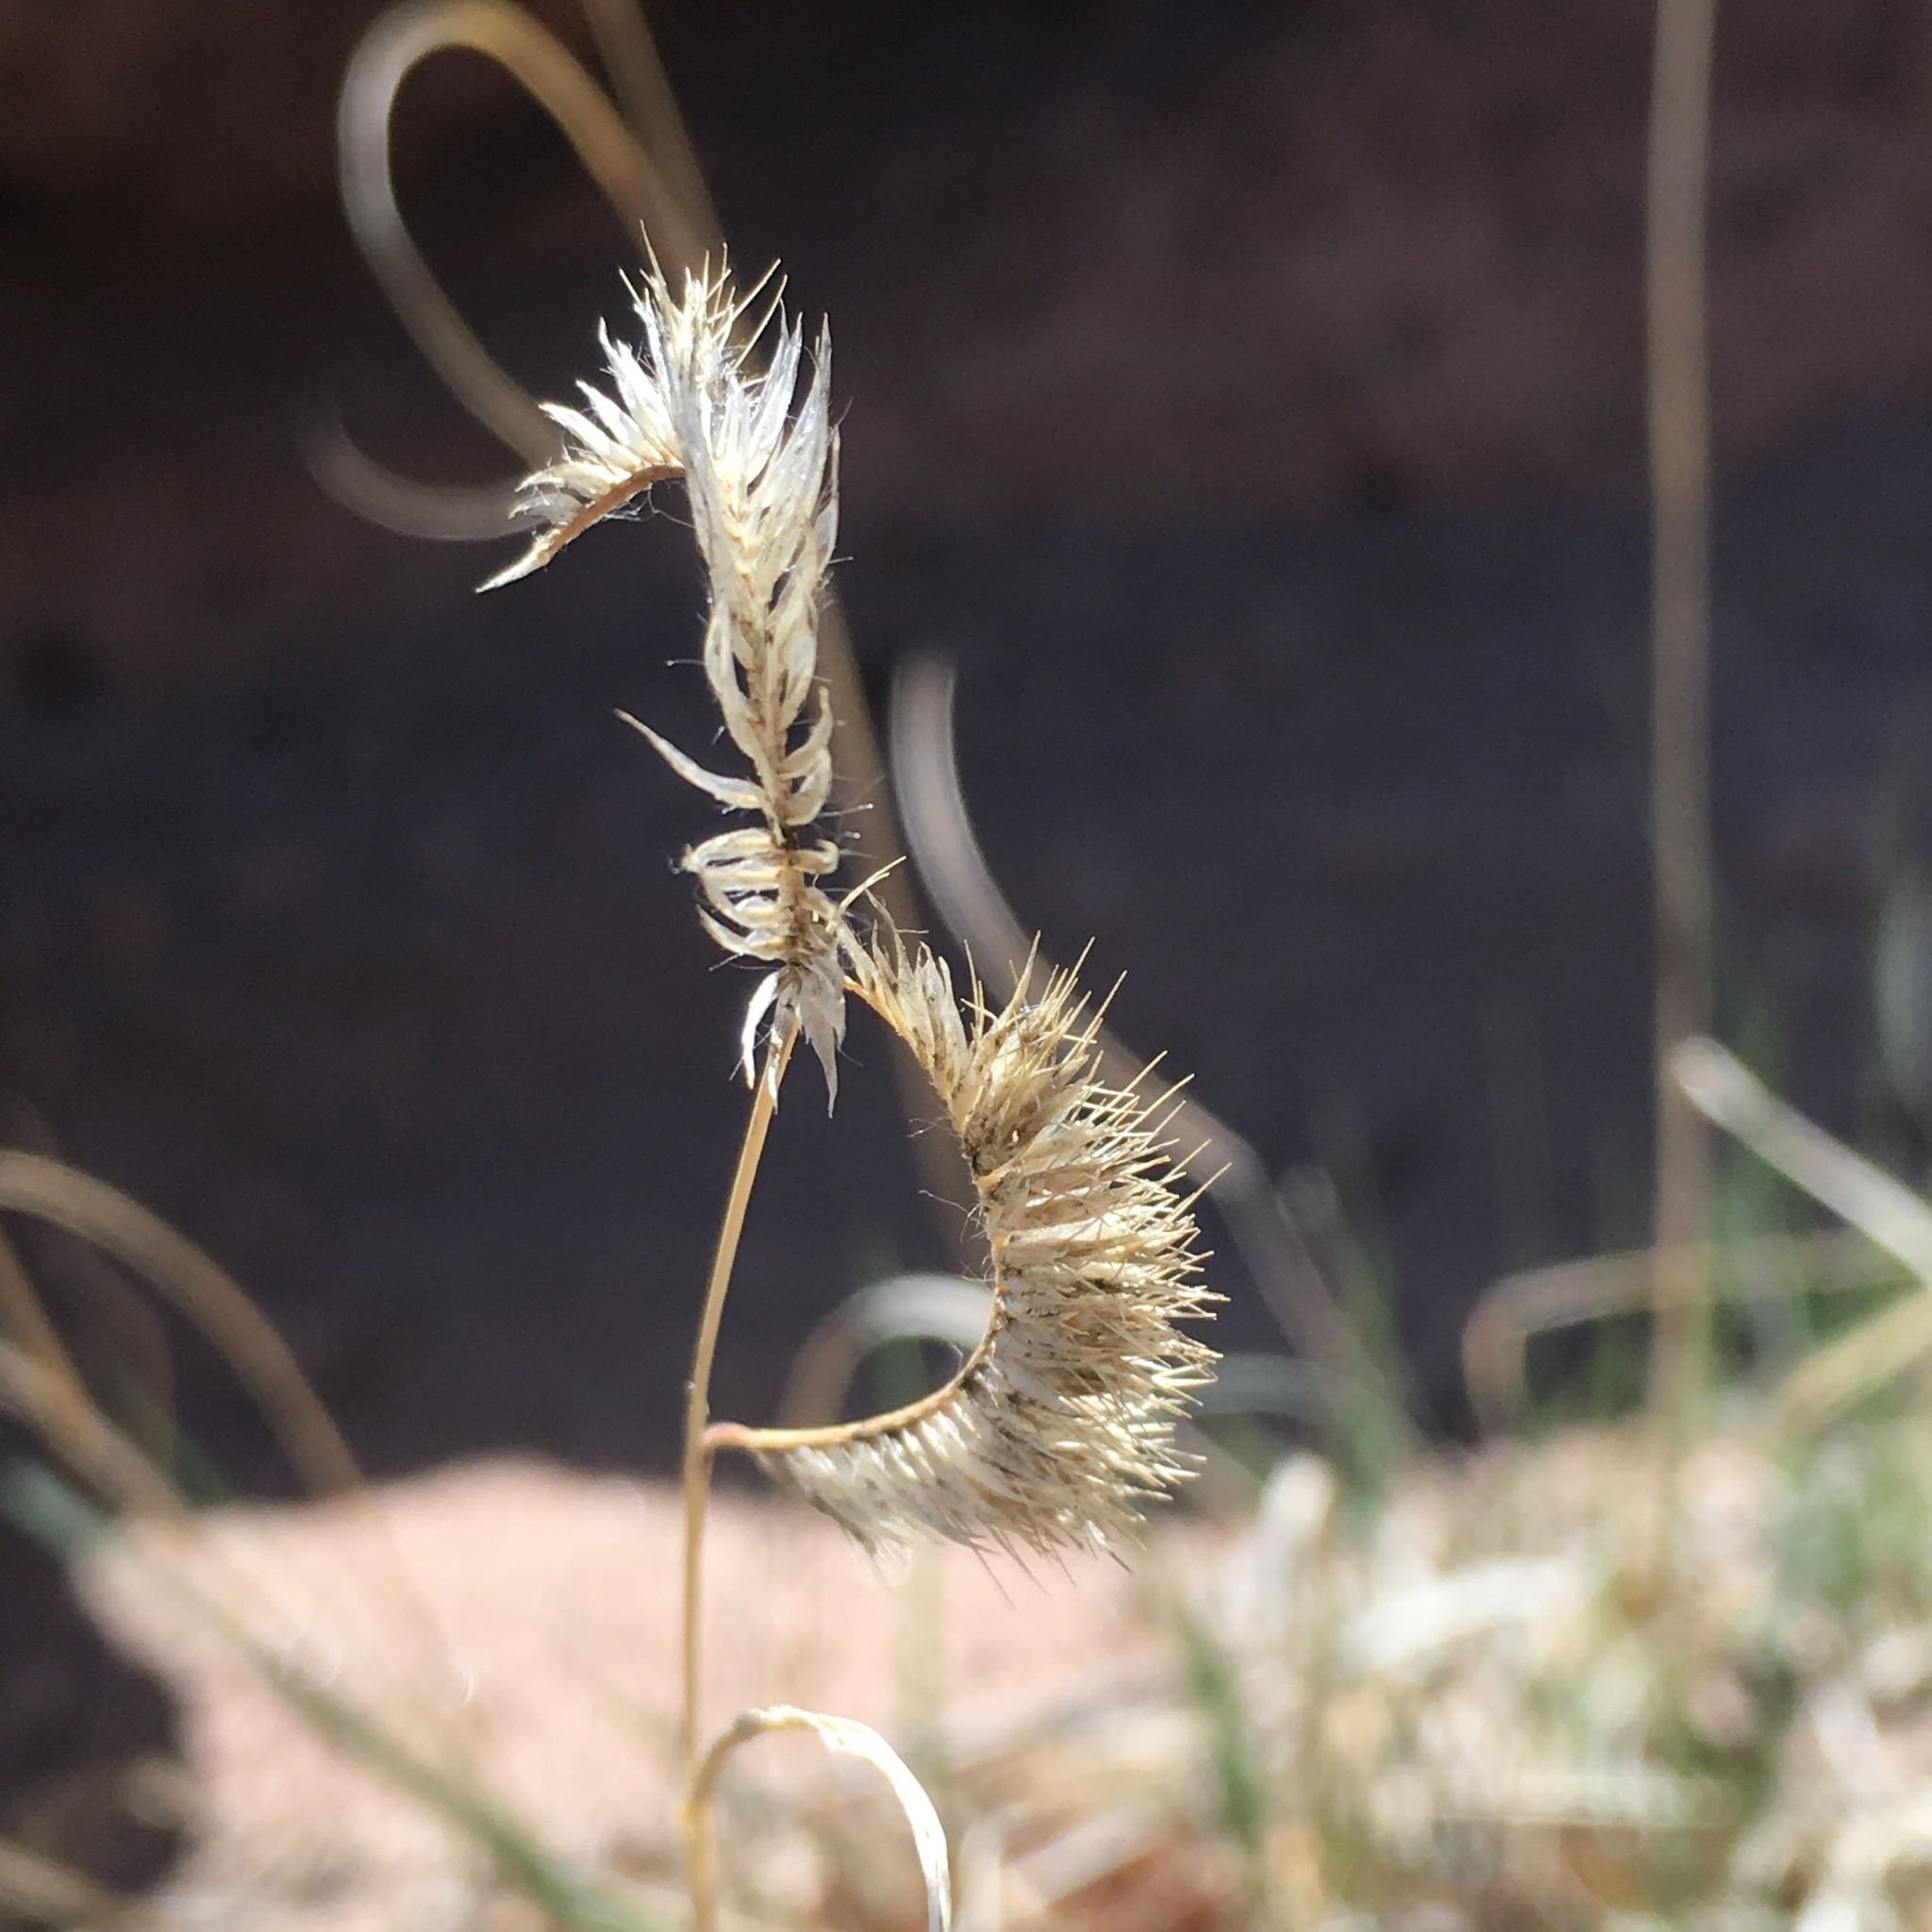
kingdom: Plantae
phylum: Tracheophyta
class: Liliopsida
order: Poales
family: Poaceae
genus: Bouteloua
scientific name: Bouteloua gracilis
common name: Blue grama
